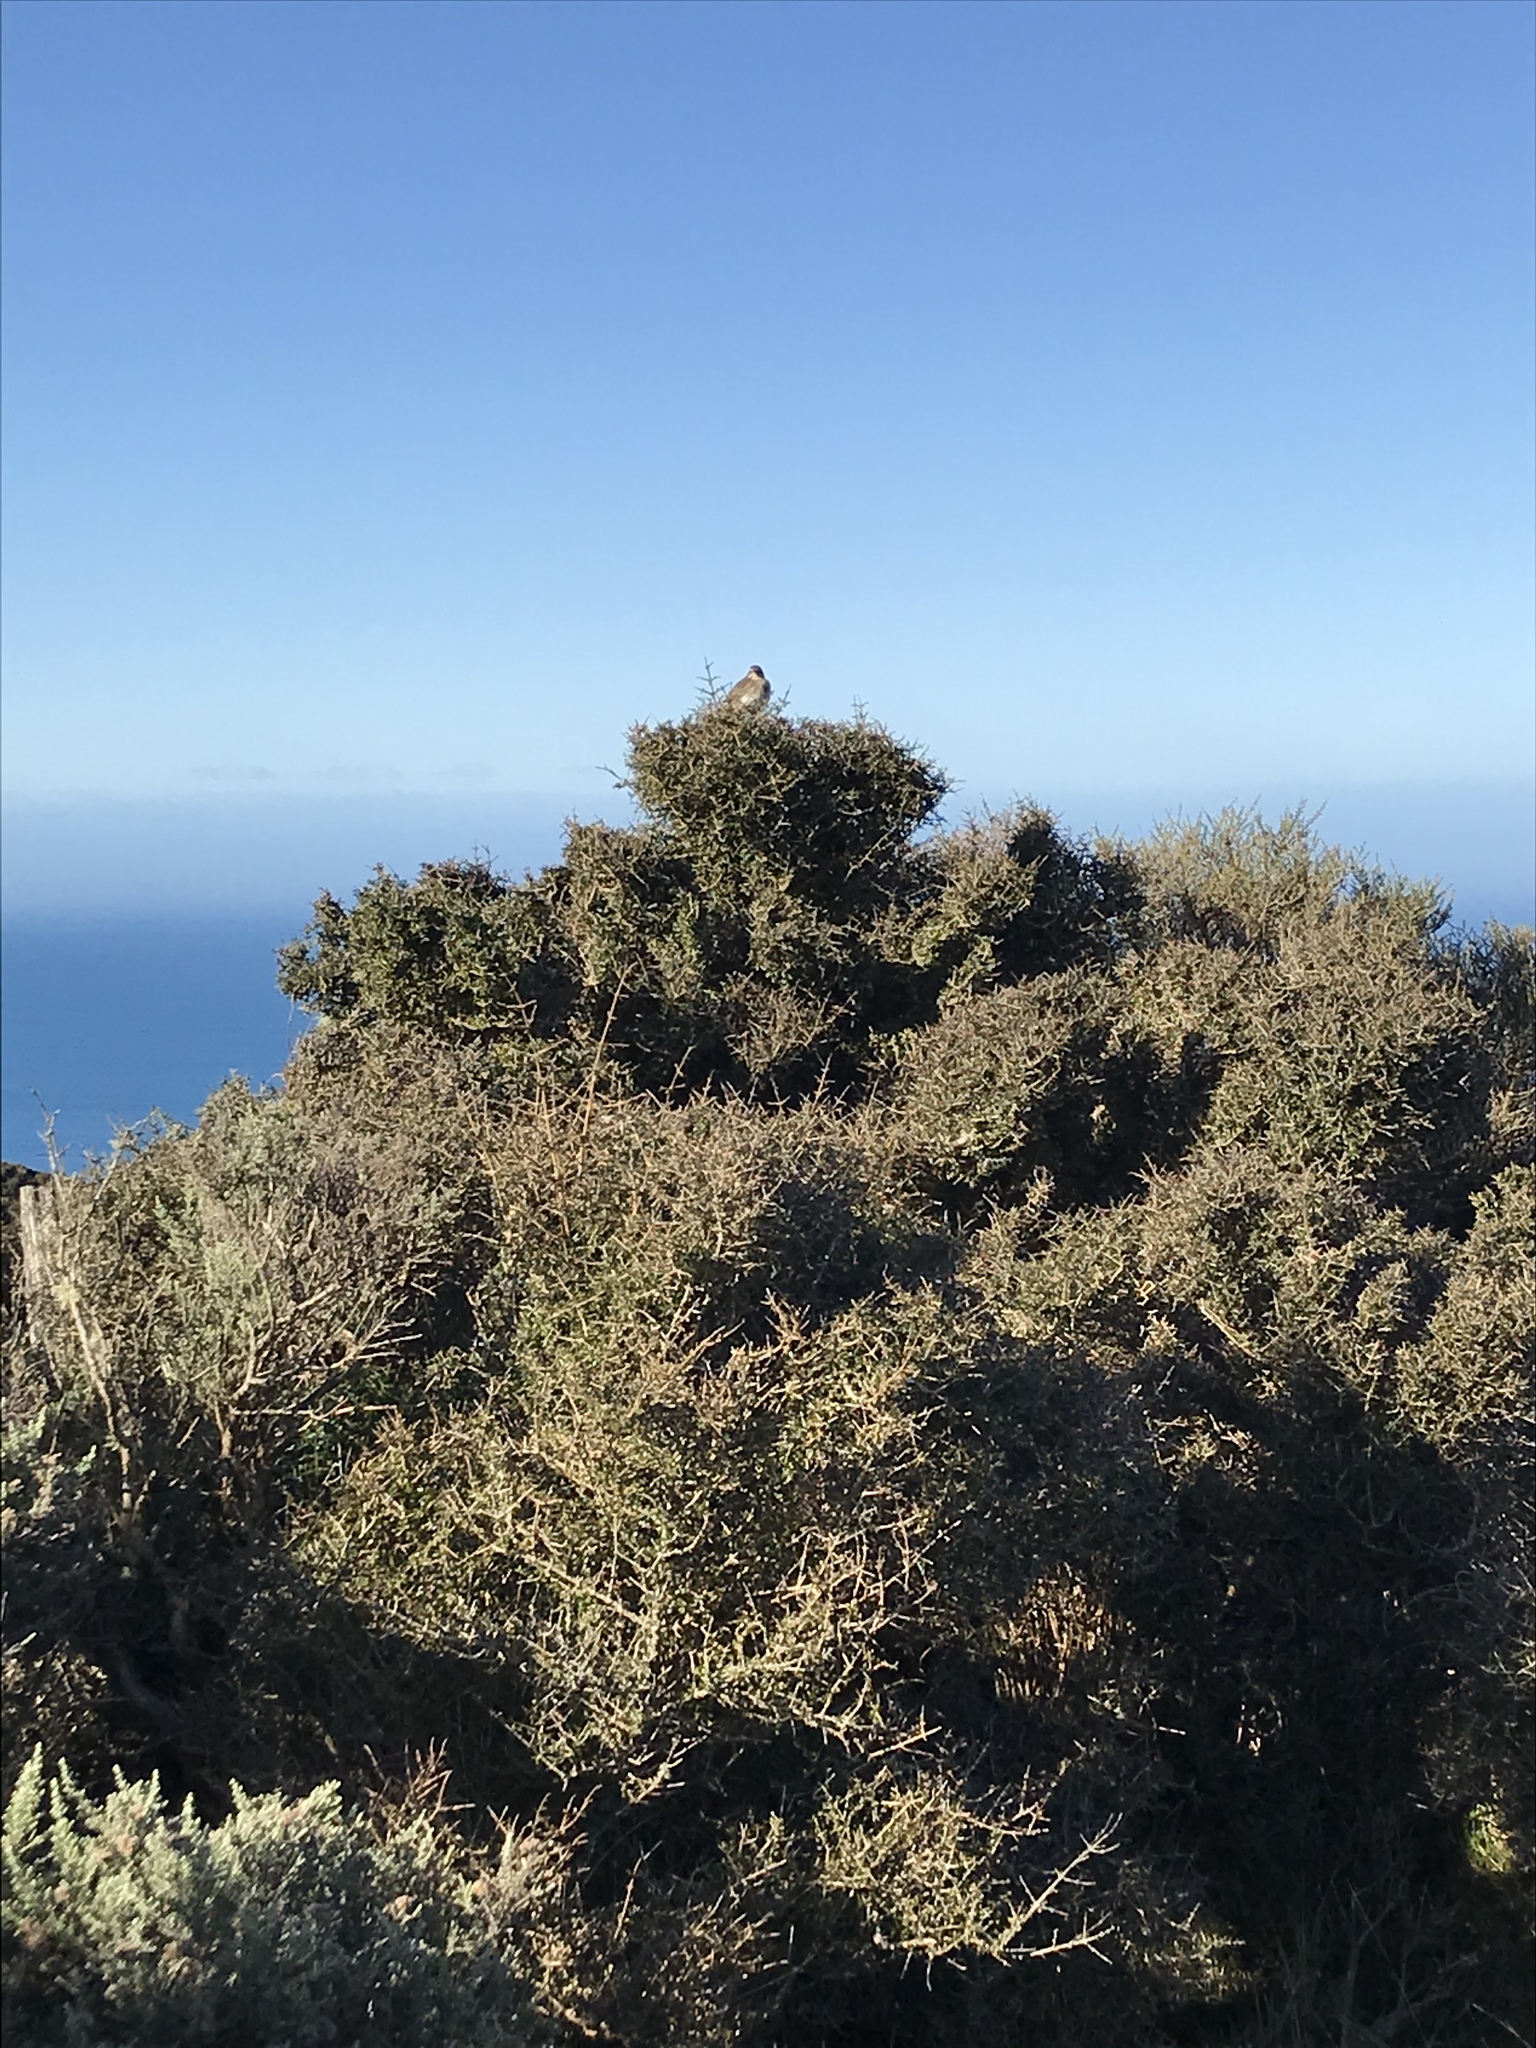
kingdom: Animalia
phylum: Chordata
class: Aves
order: Passeriformes
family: Motacillidae
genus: Anthus
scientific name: Anthus novaeseelandiae
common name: New zealand pipit
